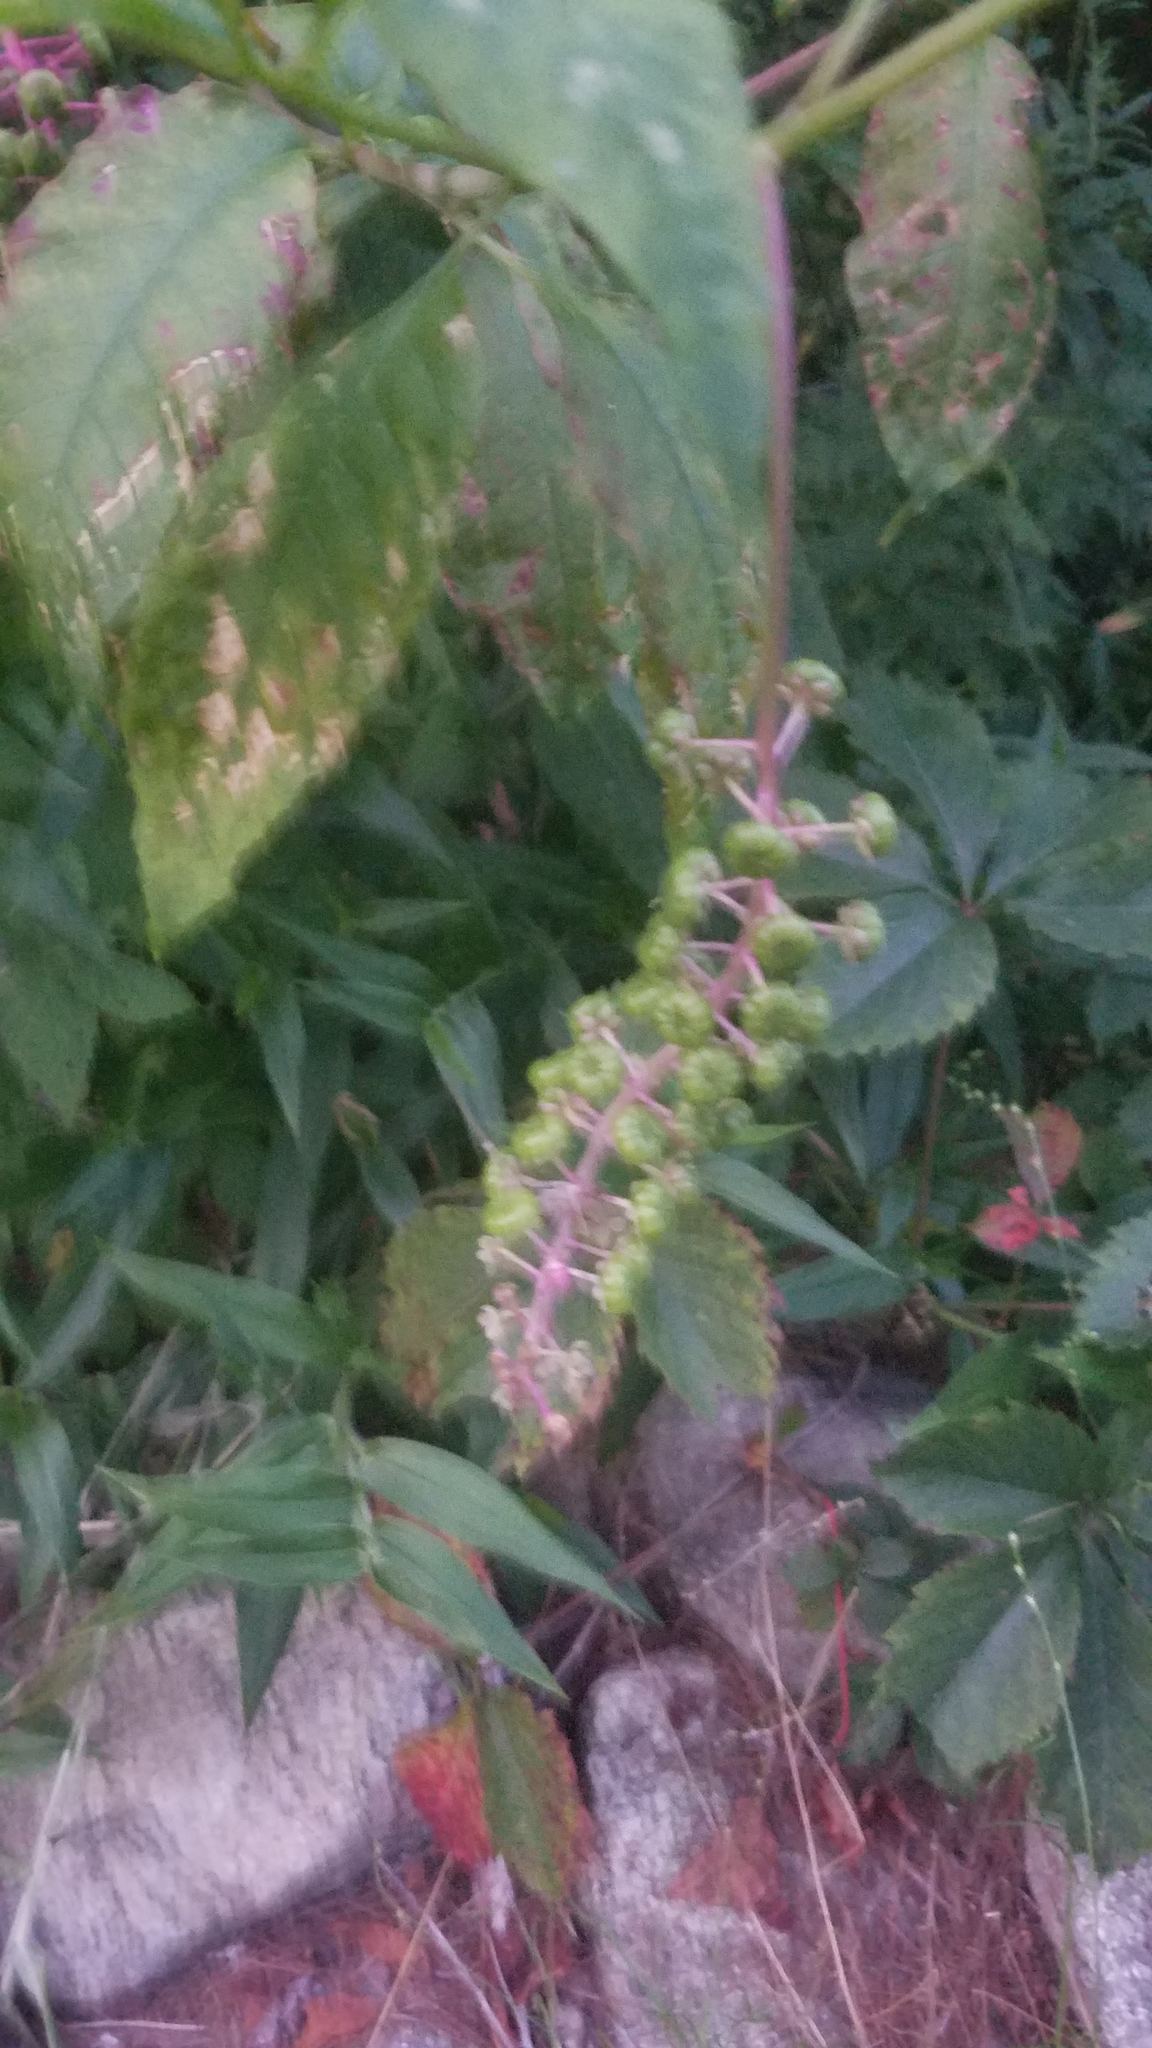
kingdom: Plantae
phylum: Tracheophyta
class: Magnoliopsida
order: Caryophyllales
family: Phytolaccaceae
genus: Phytolacca
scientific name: Phytolacca americana
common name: American pokeweed
